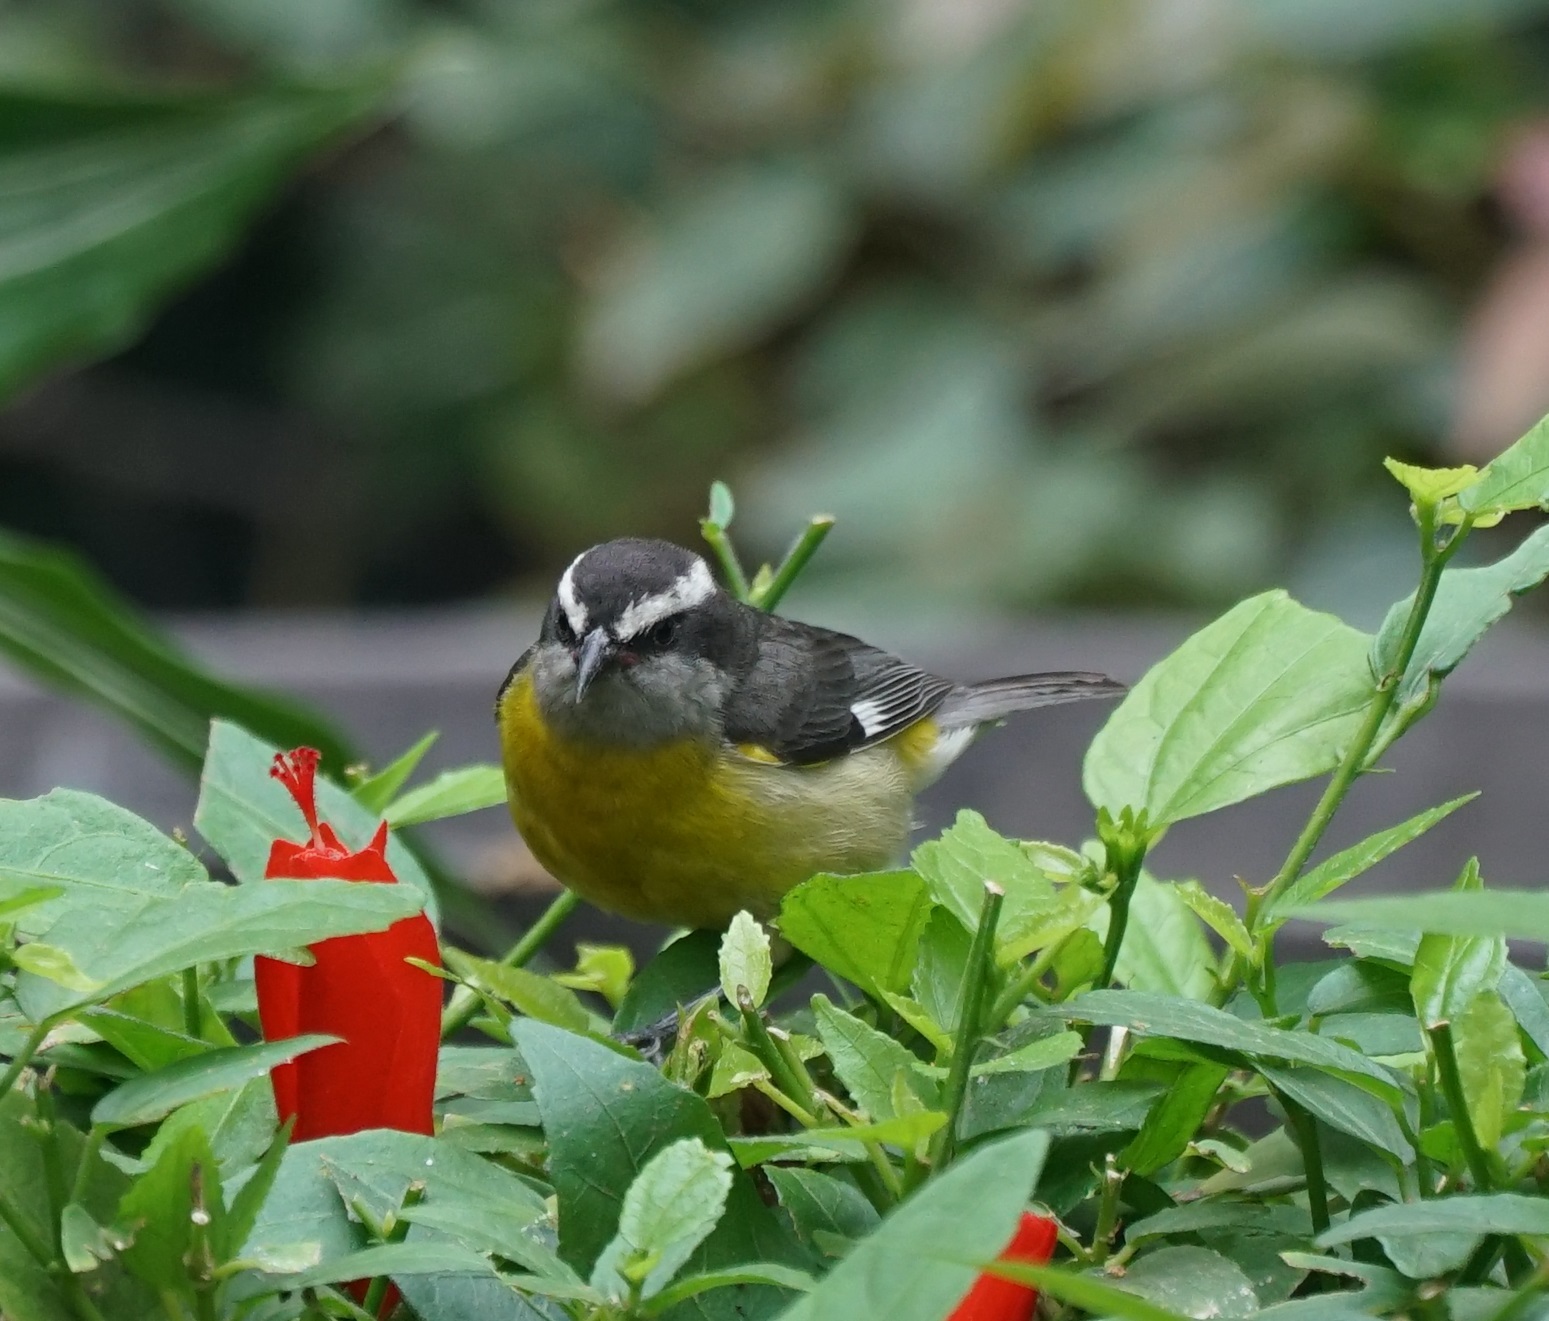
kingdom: Animalia
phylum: Chordata
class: Aves
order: Passeriformes
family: Thraupidae
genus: Coereba
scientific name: Coereba flaveola
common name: Bananaquit
